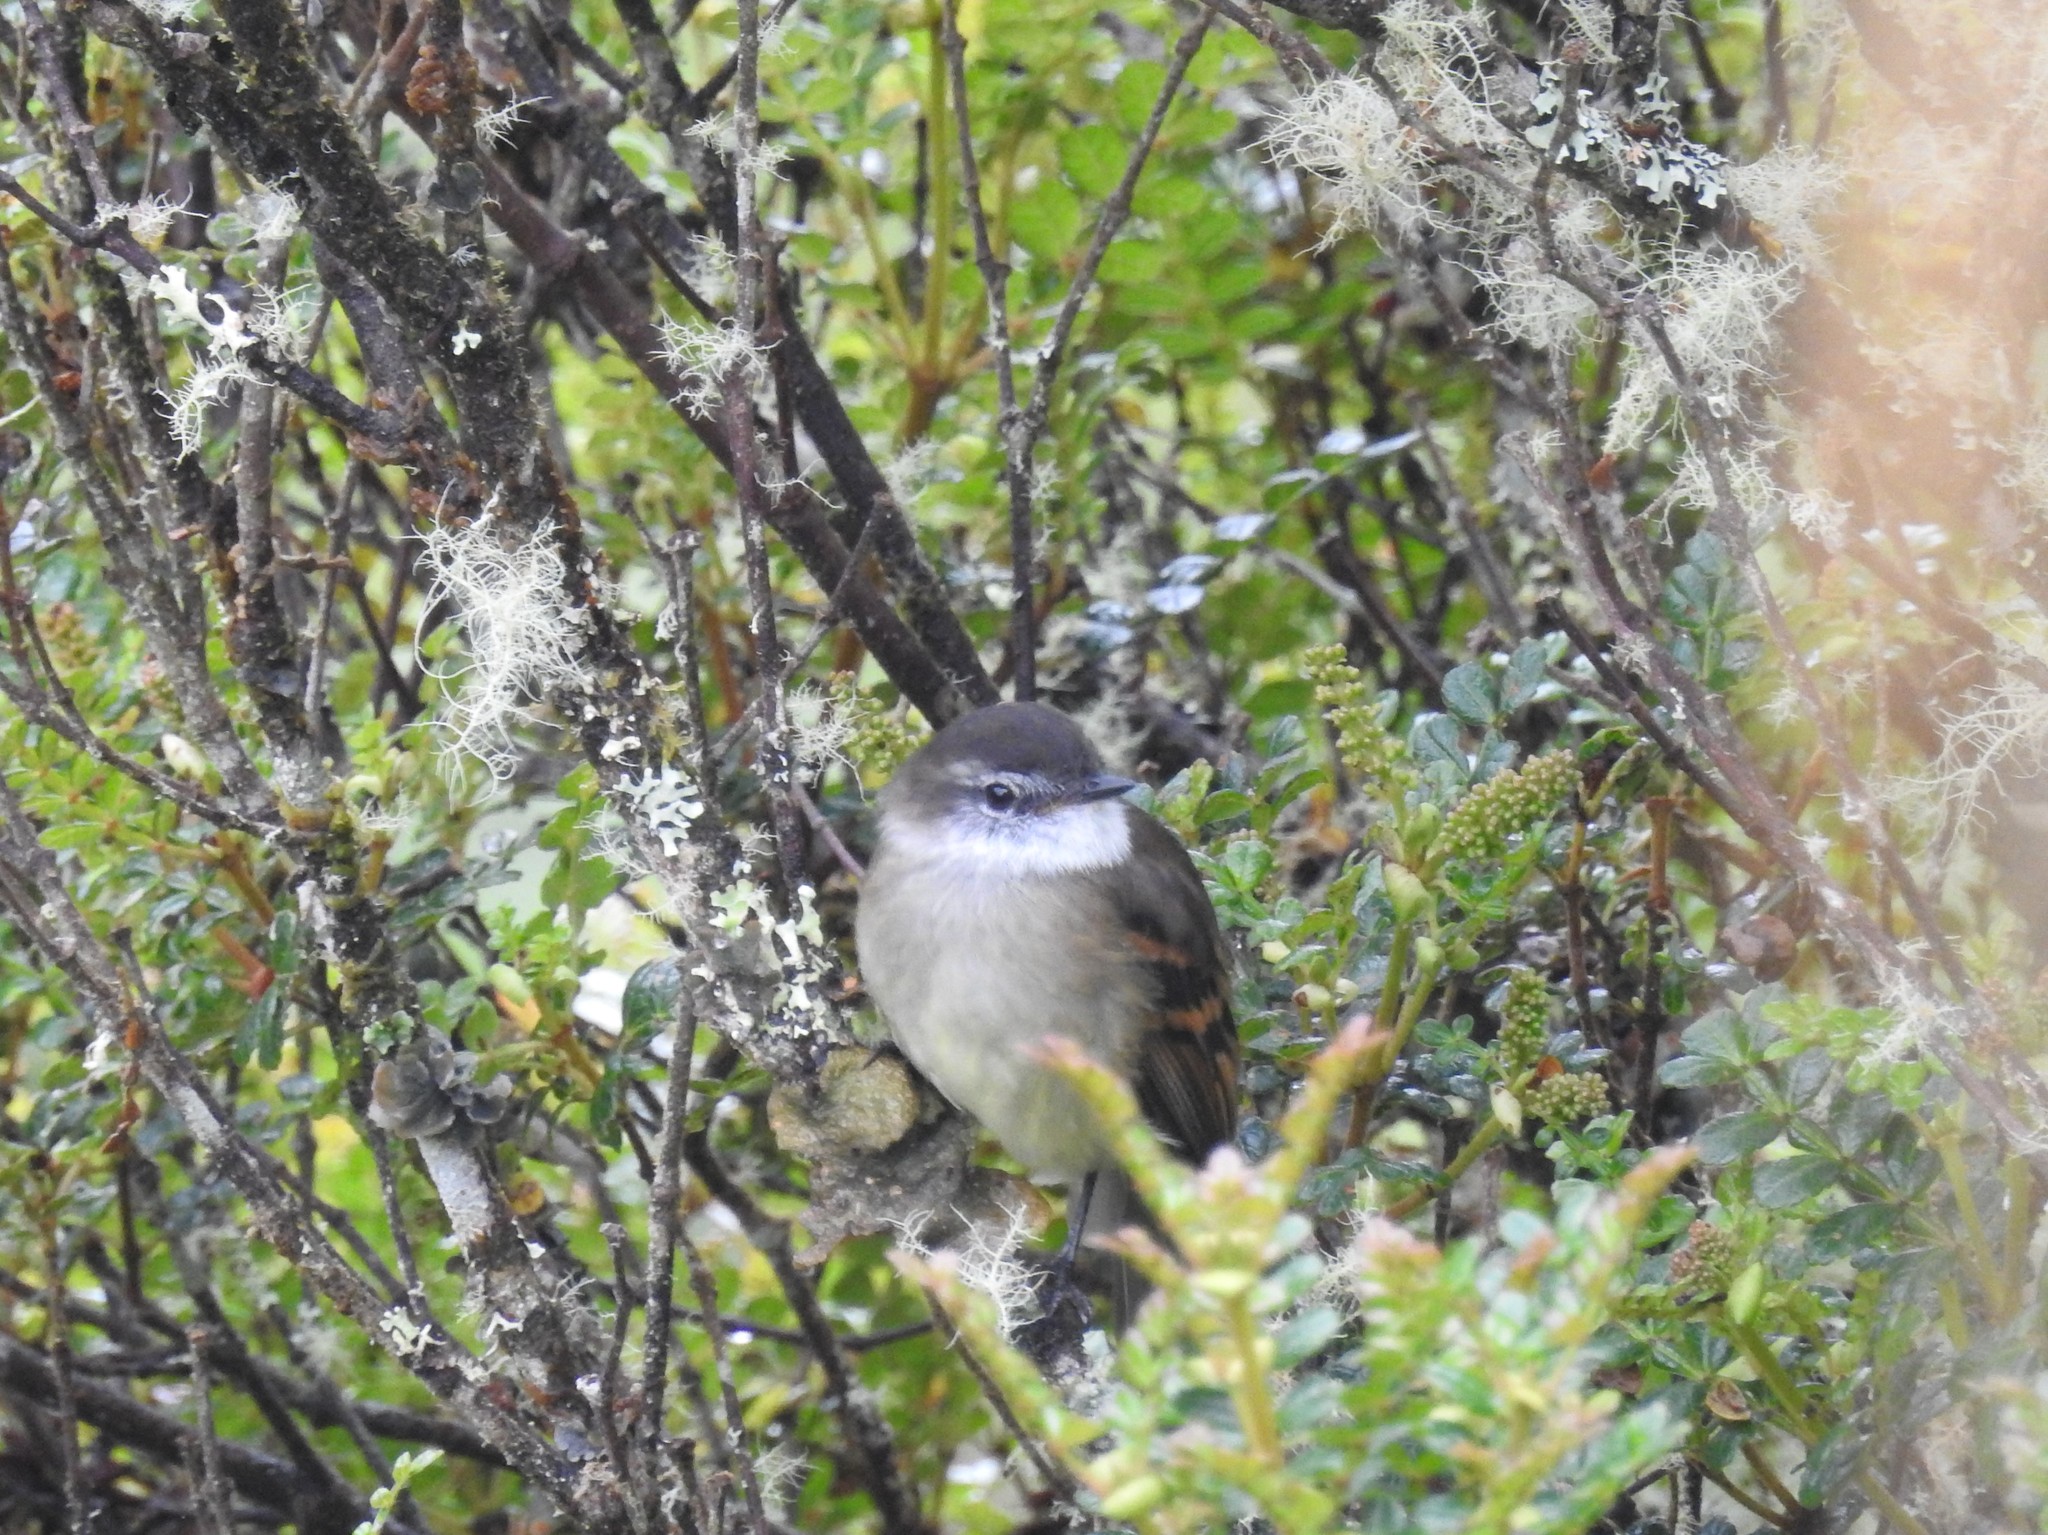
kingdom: Animalia
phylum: Chordata
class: Aves
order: Passeriformes
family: Tyrannidae
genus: Mecocerculus
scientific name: Mecocerculus leucophrys
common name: White-throated tyrannulet
